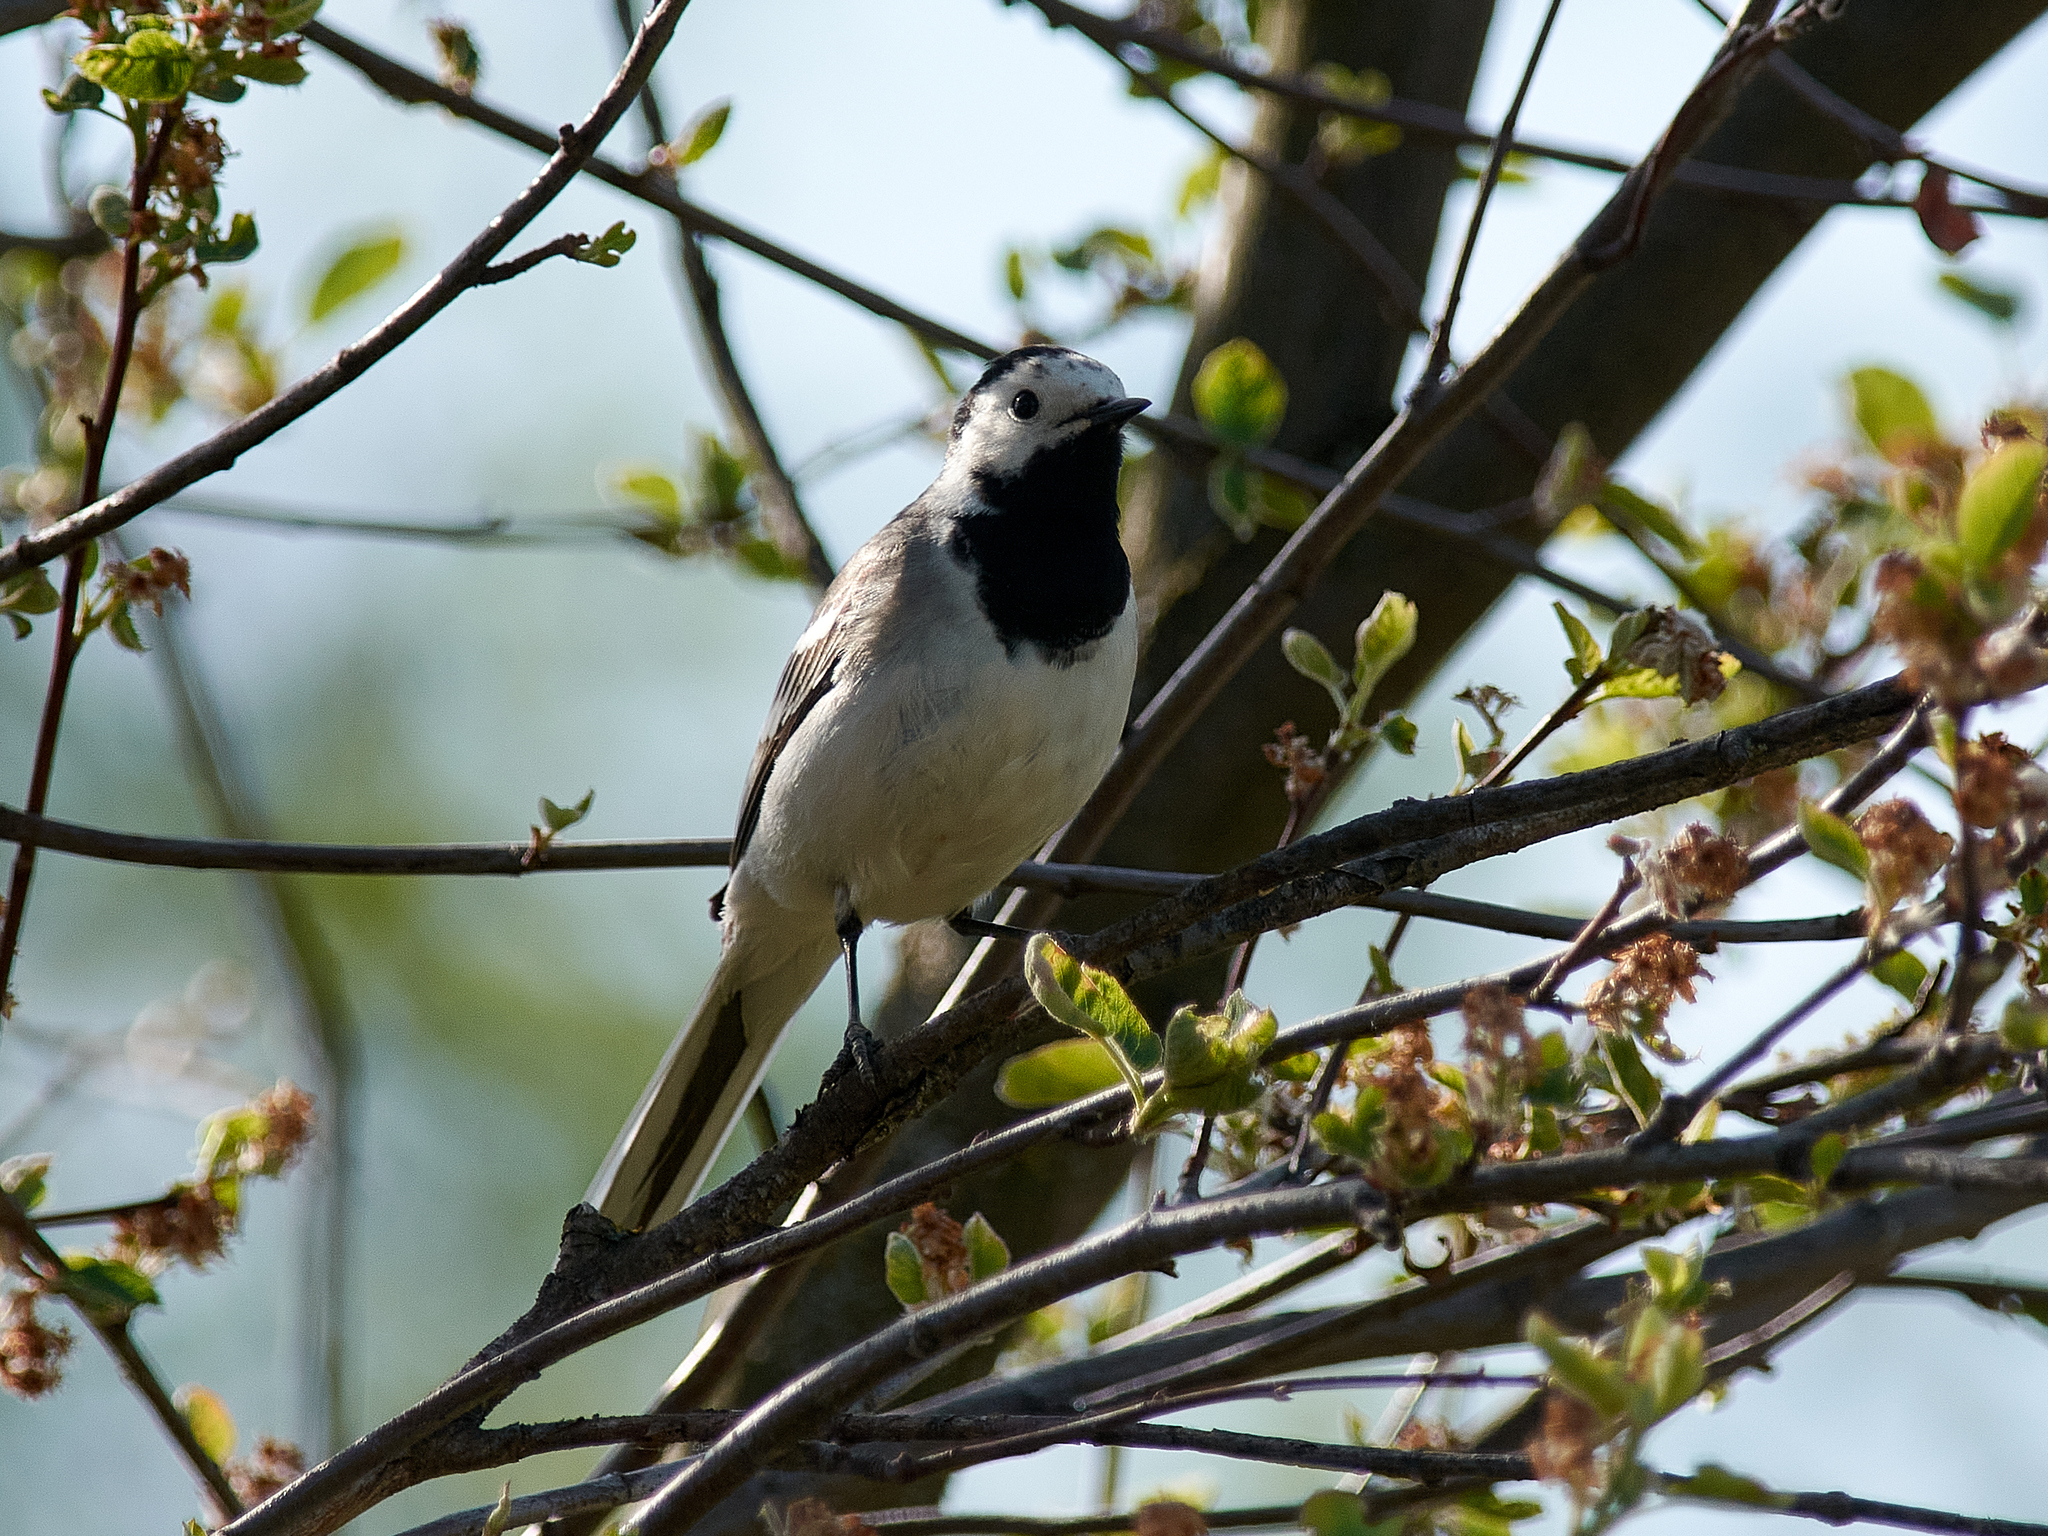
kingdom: Animalia
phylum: Chordata
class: Aves
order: Passeriformes
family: Motacillidae
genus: Motacilla
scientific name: Motacilla alba
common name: White wagtail
